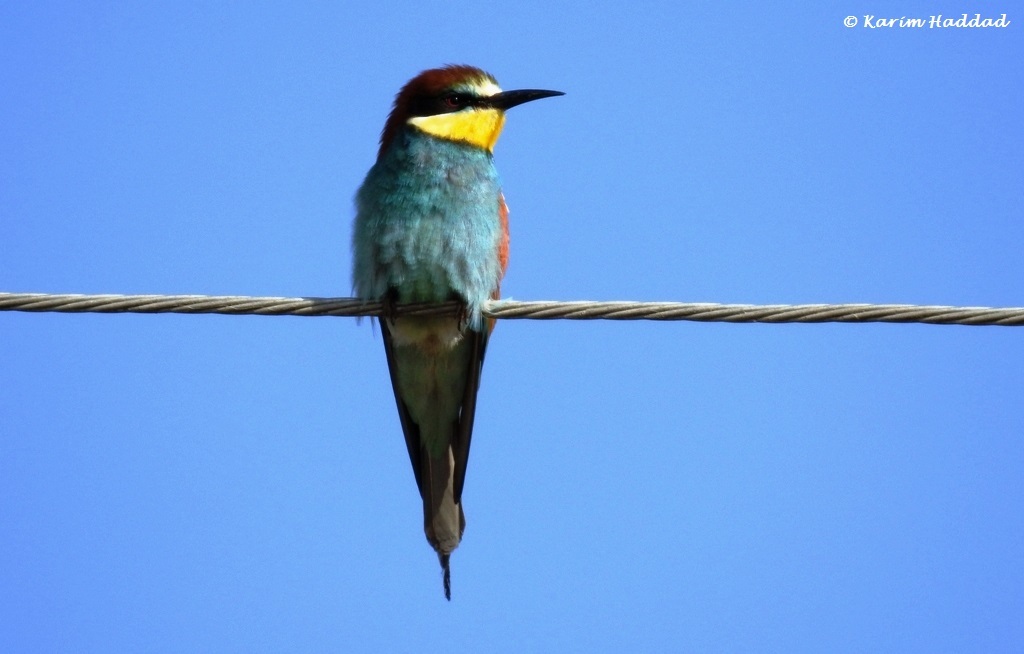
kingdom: Animalia
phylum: Chordata
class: Aves
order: Coraciiformes
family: Meropidae
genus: Merops
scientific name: Merops apiaster
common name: European bee-eater
